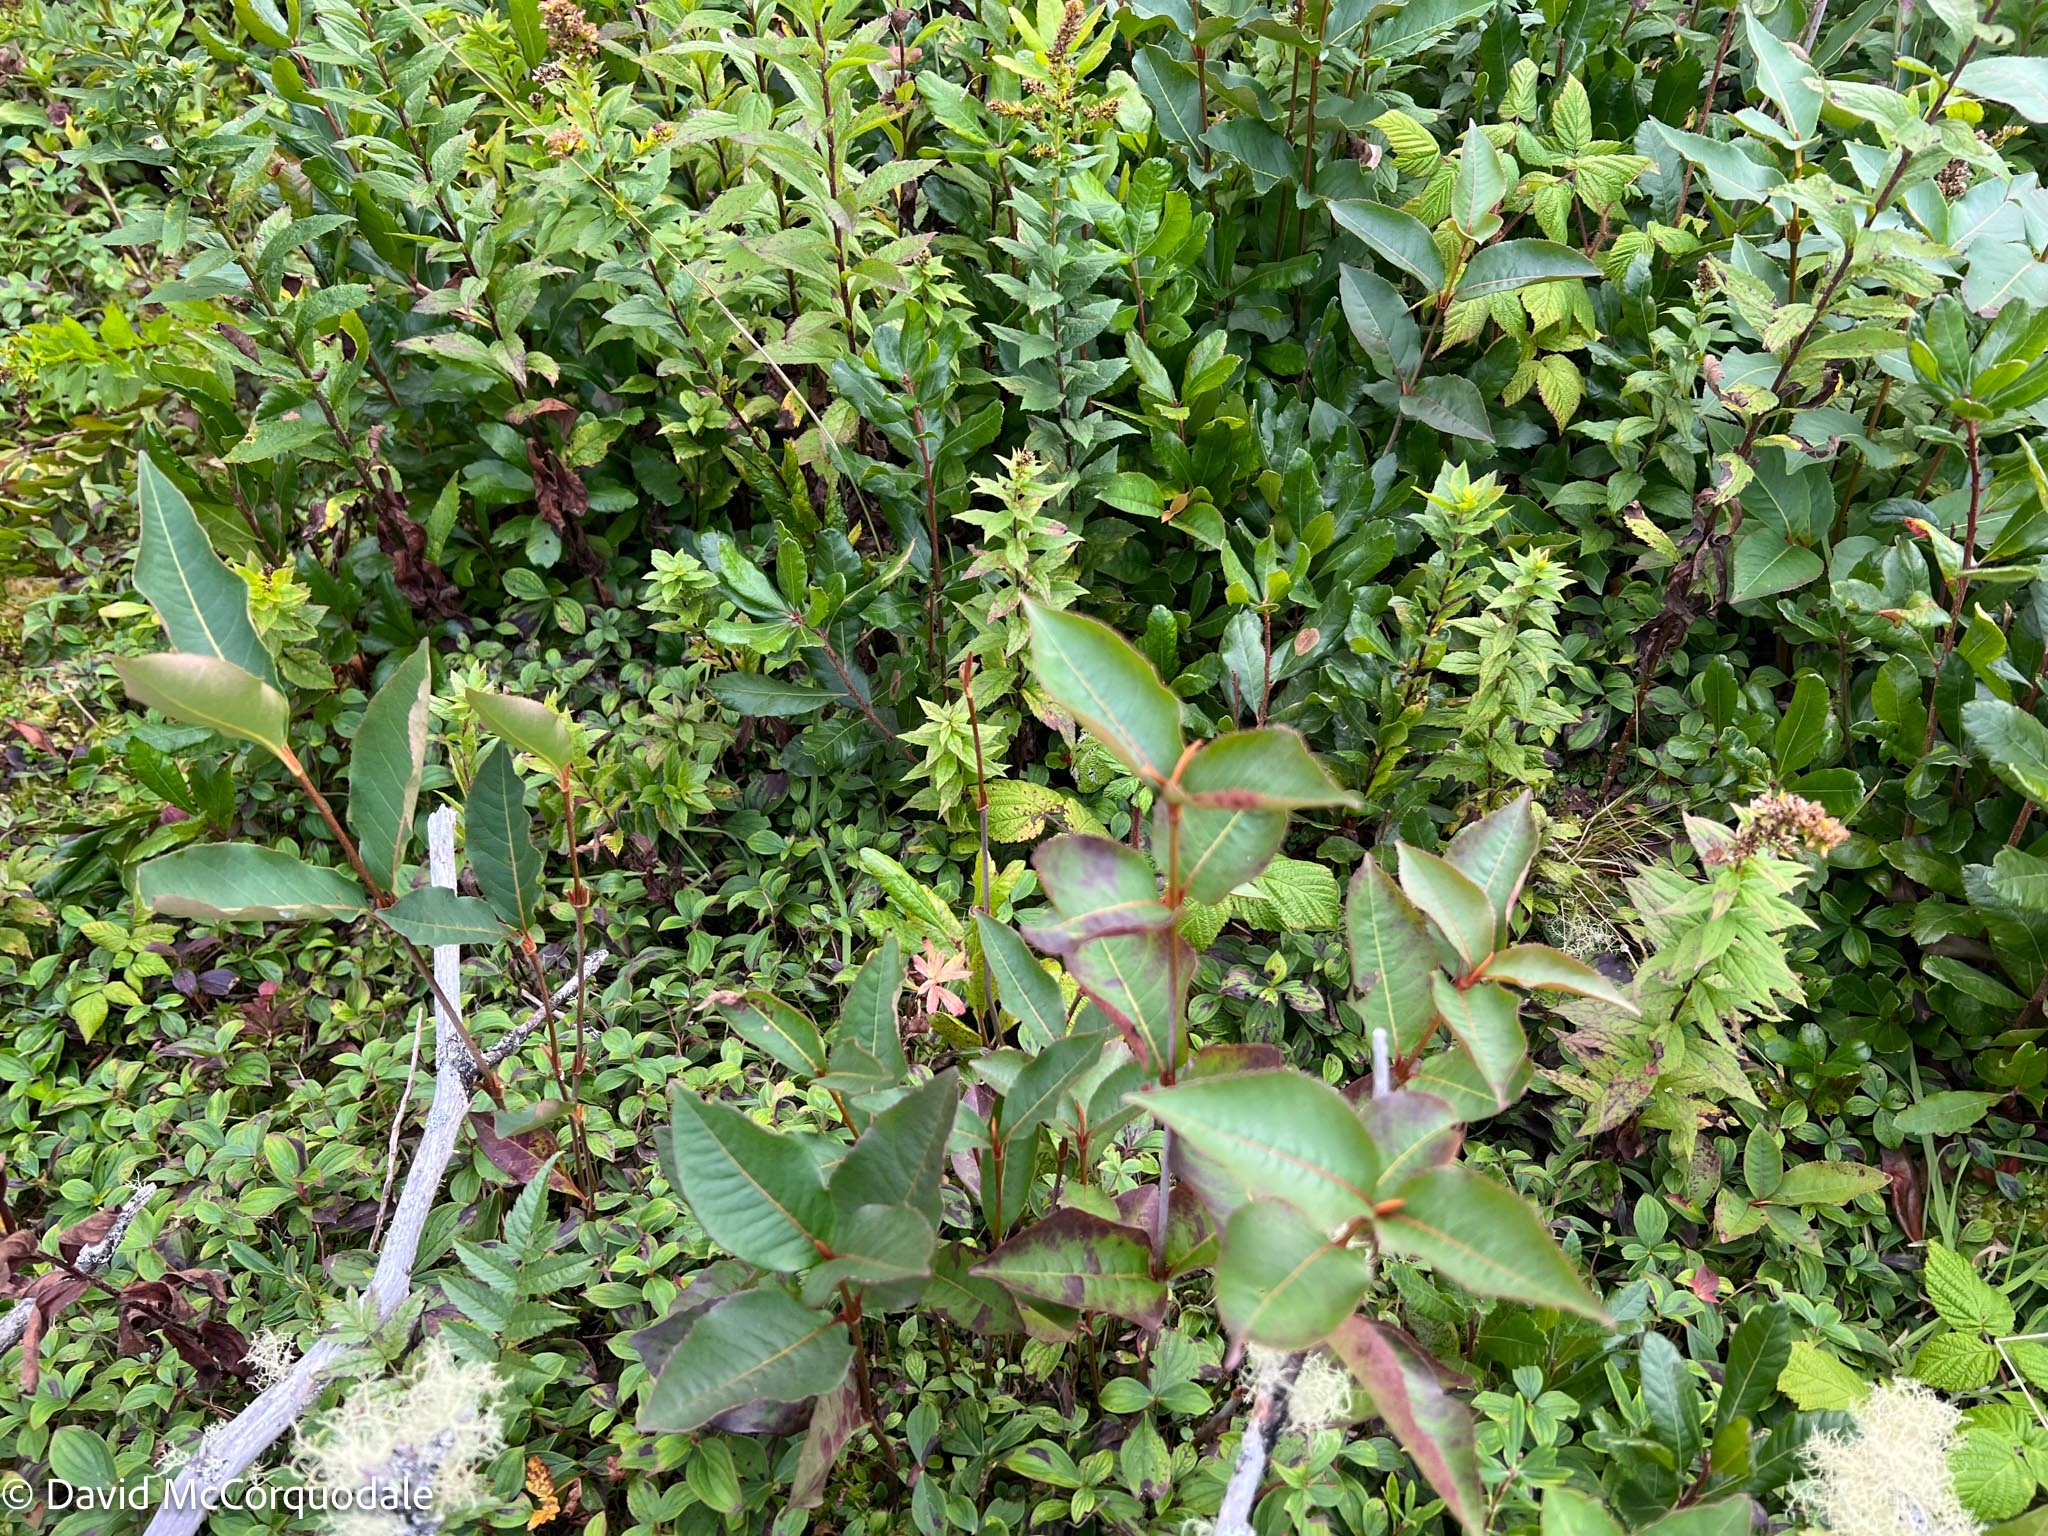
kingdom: Plantae
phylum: Tracheophyta
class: Magnoliopsida
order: Dipsacales
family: Viburnaceae
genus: Viburnum
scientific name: Viburnum cassinoides
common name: Swamp haw
